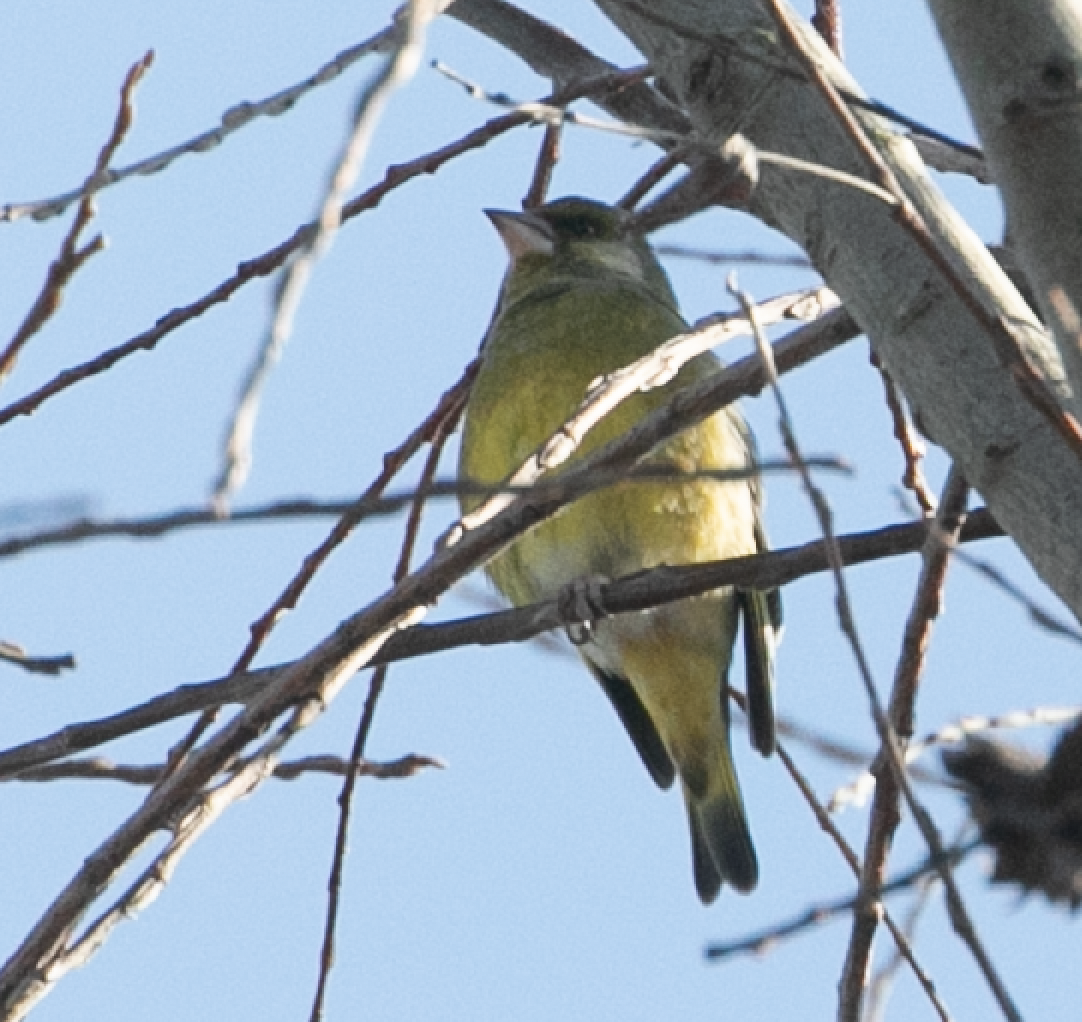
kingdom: Plantae
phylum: Tracheophyta
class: Liliopsida
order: Poales
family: Poaceae
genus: Chloris
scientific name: Chloris chloris
